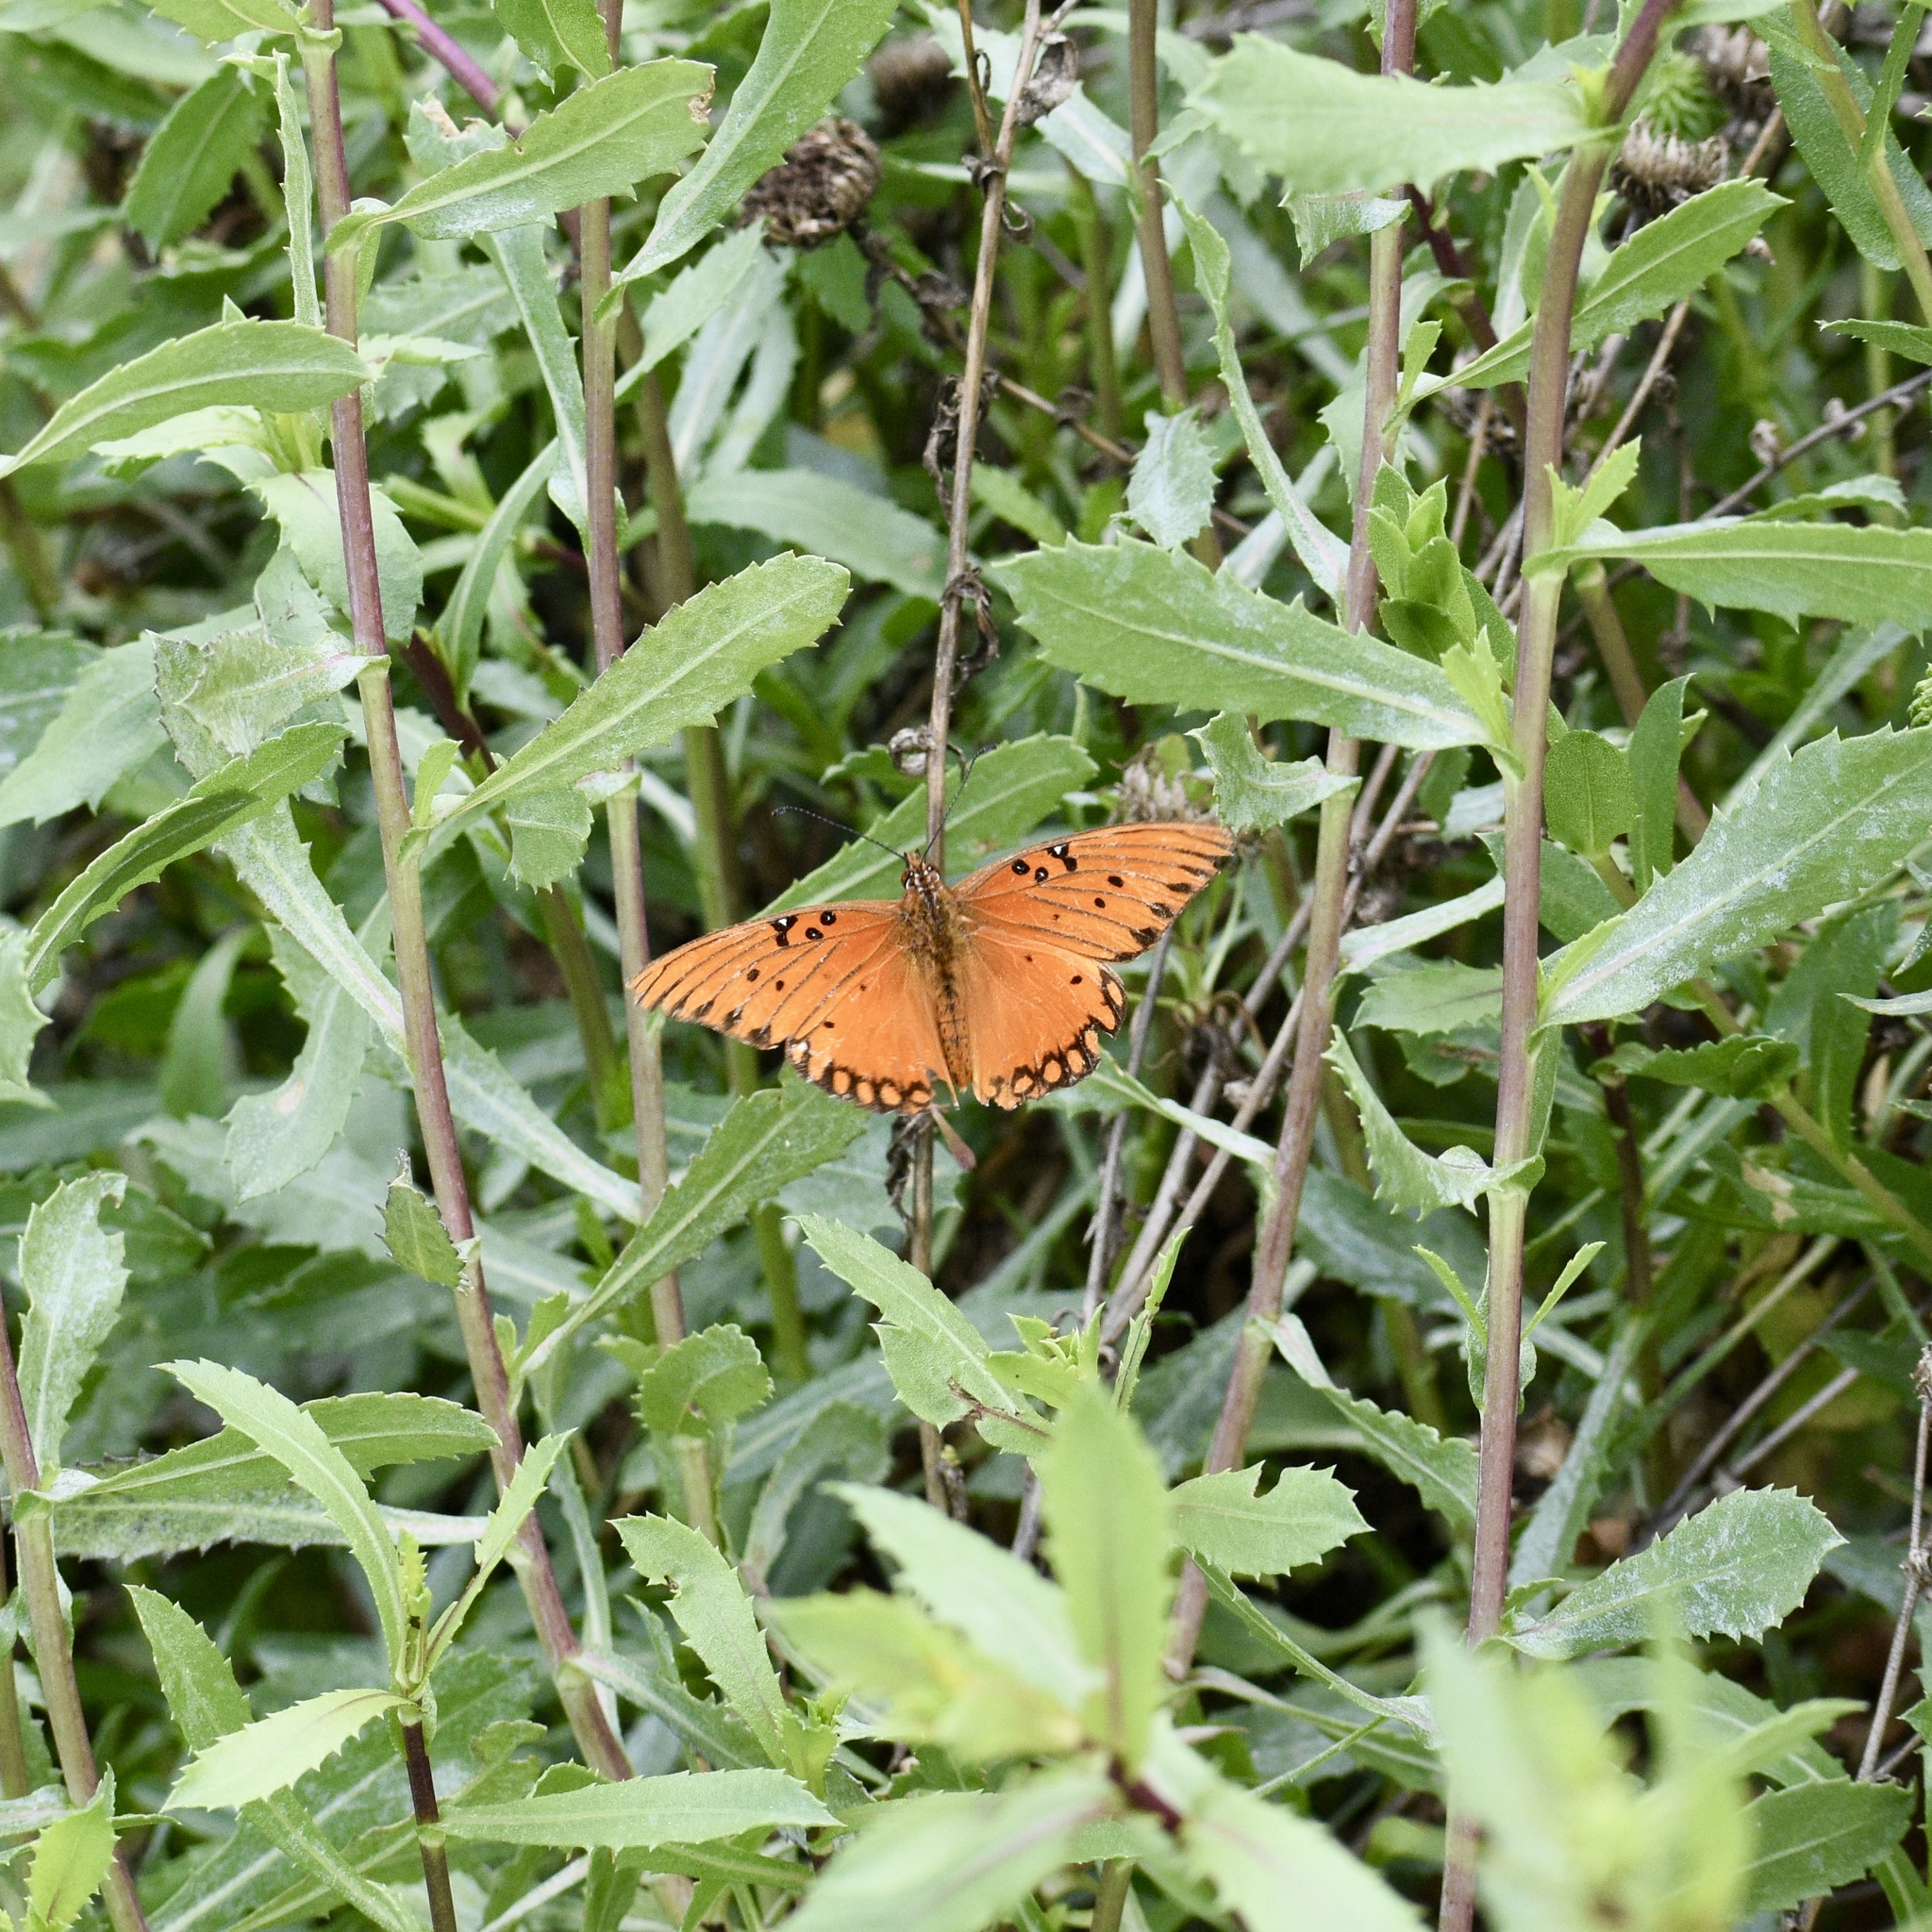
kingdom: Animalia
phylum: Arthropoda
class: Insecta
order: Lepidoptera
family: Nymphalidae
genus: Dione
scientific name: Dione vanillae
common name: Gulf fritillary
